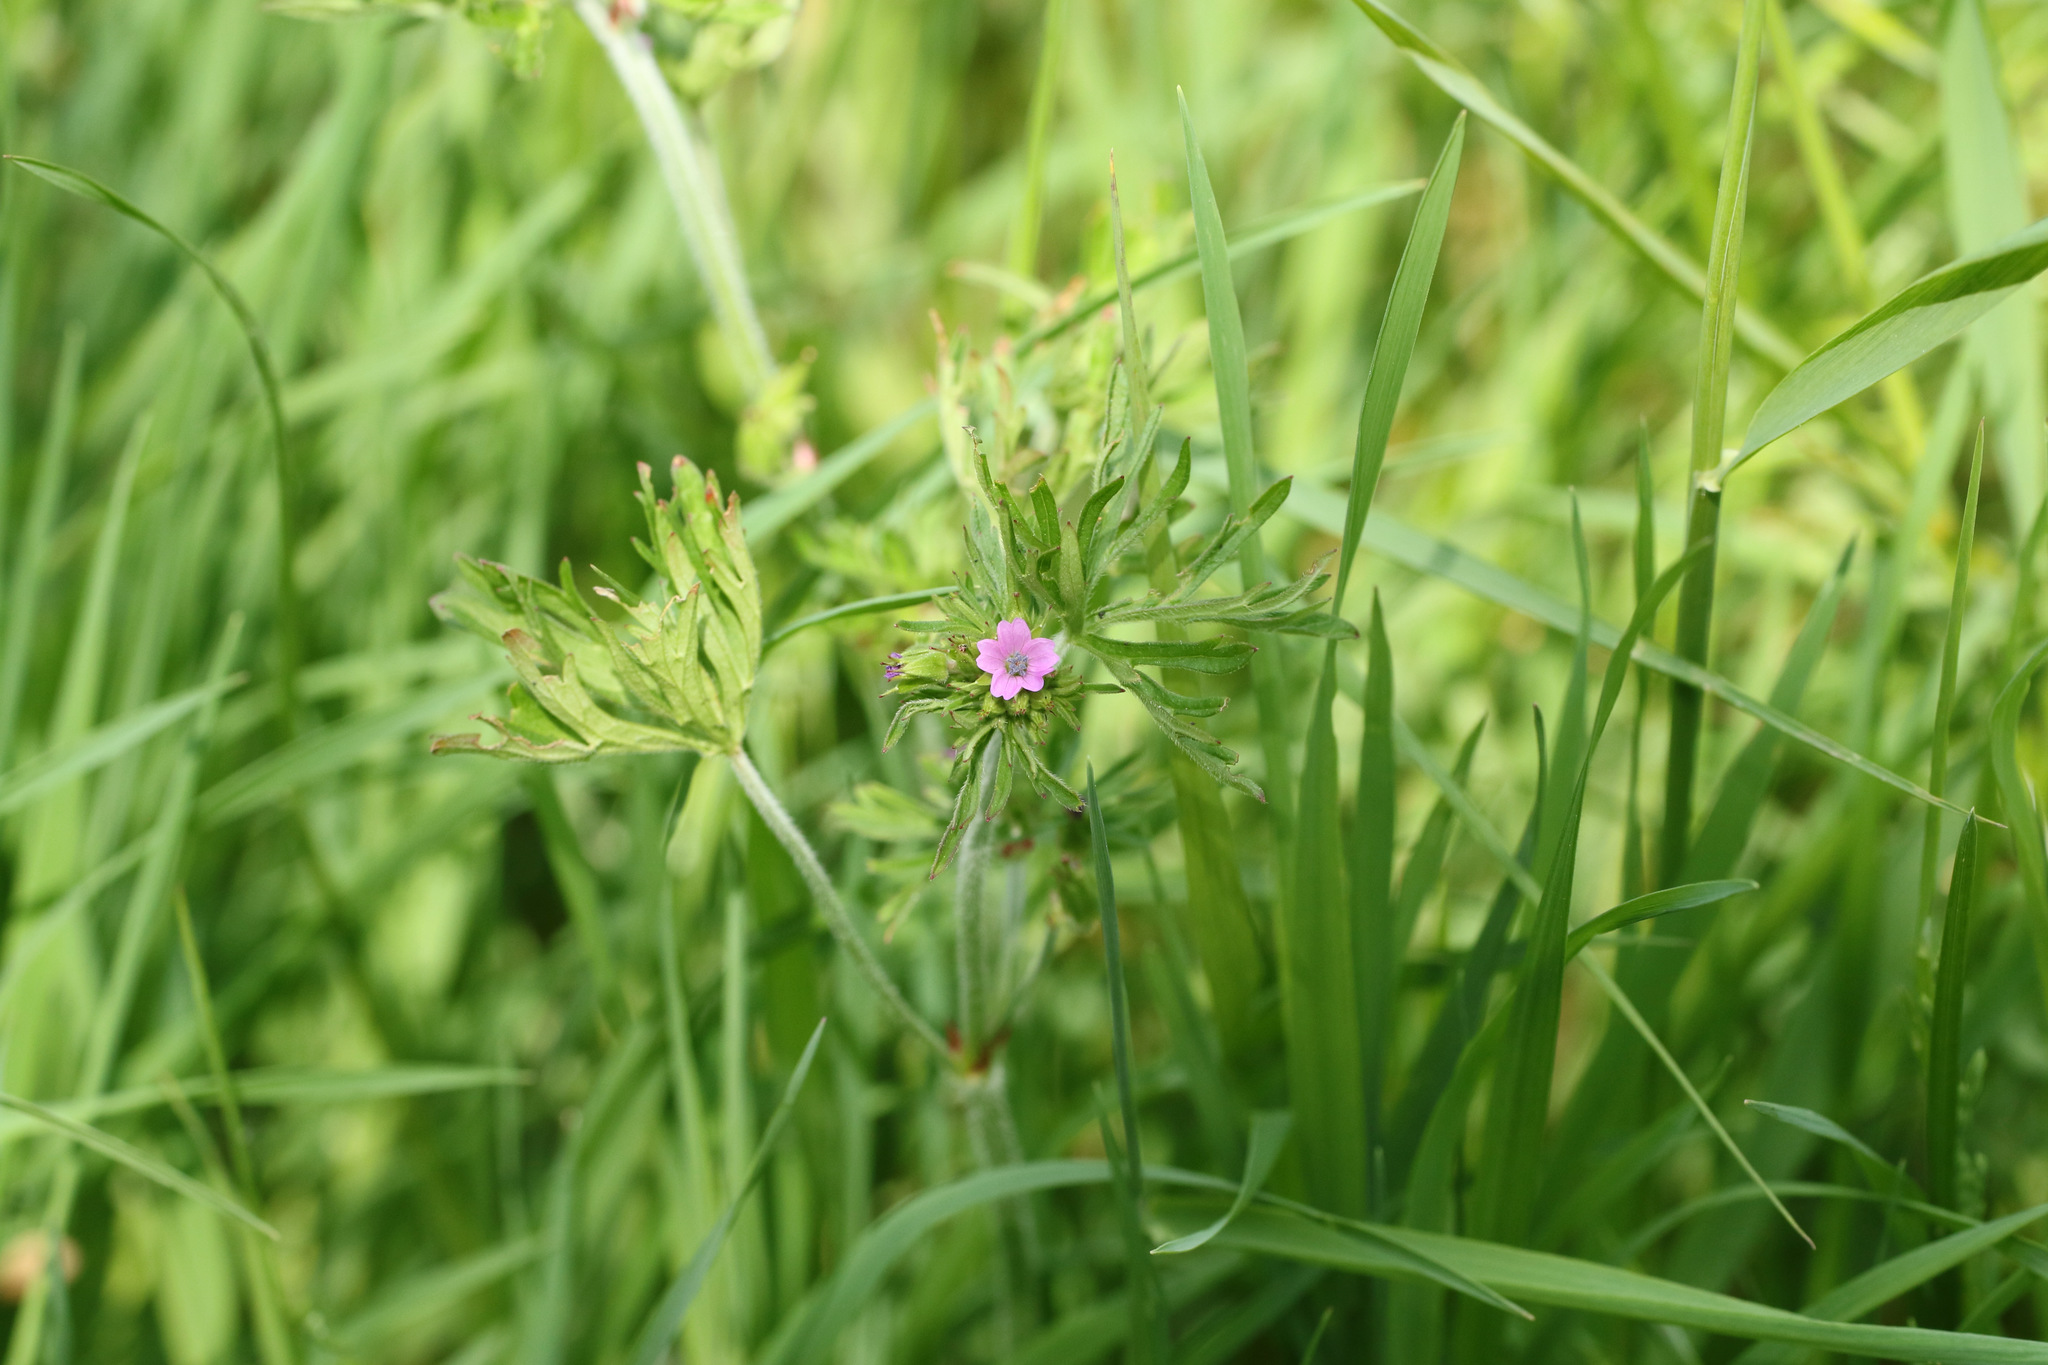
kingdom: Plantae
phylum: Tracheophyta
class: Magnoliopsida
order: Geraniales
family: Geraniaceae
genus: Geranium
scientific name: Geranium dissectum
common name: Cut-leaved crane's-bill
